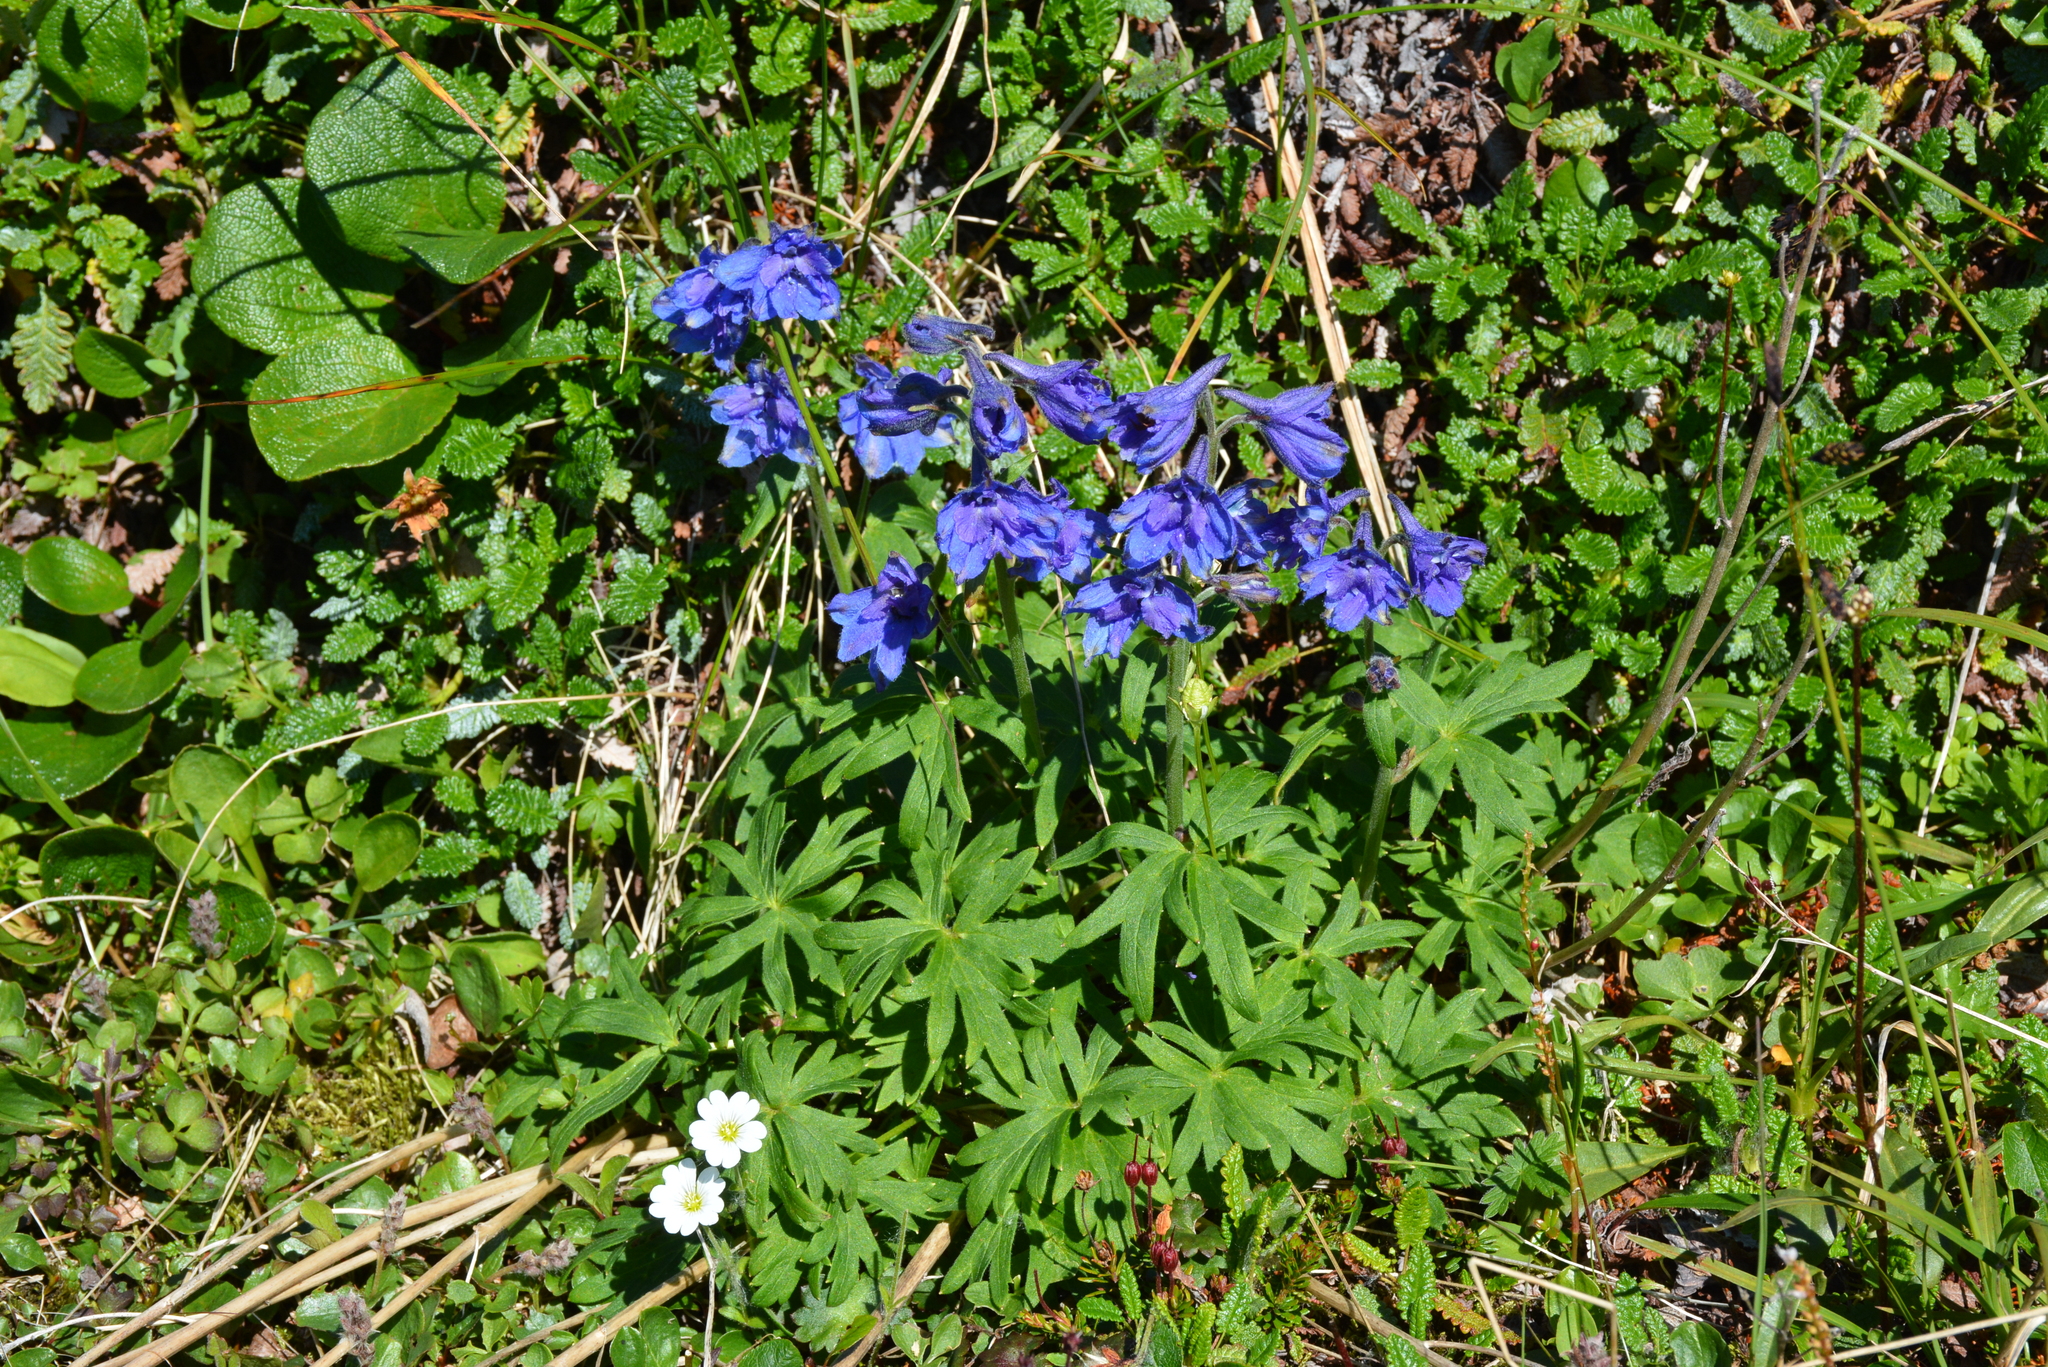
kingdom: Plantae
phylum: Tracheophyta
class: Magnoliopsida
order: Ranunculales
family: Ranunculaceae
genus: Delphinium
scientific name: Delphinium chamissonis
